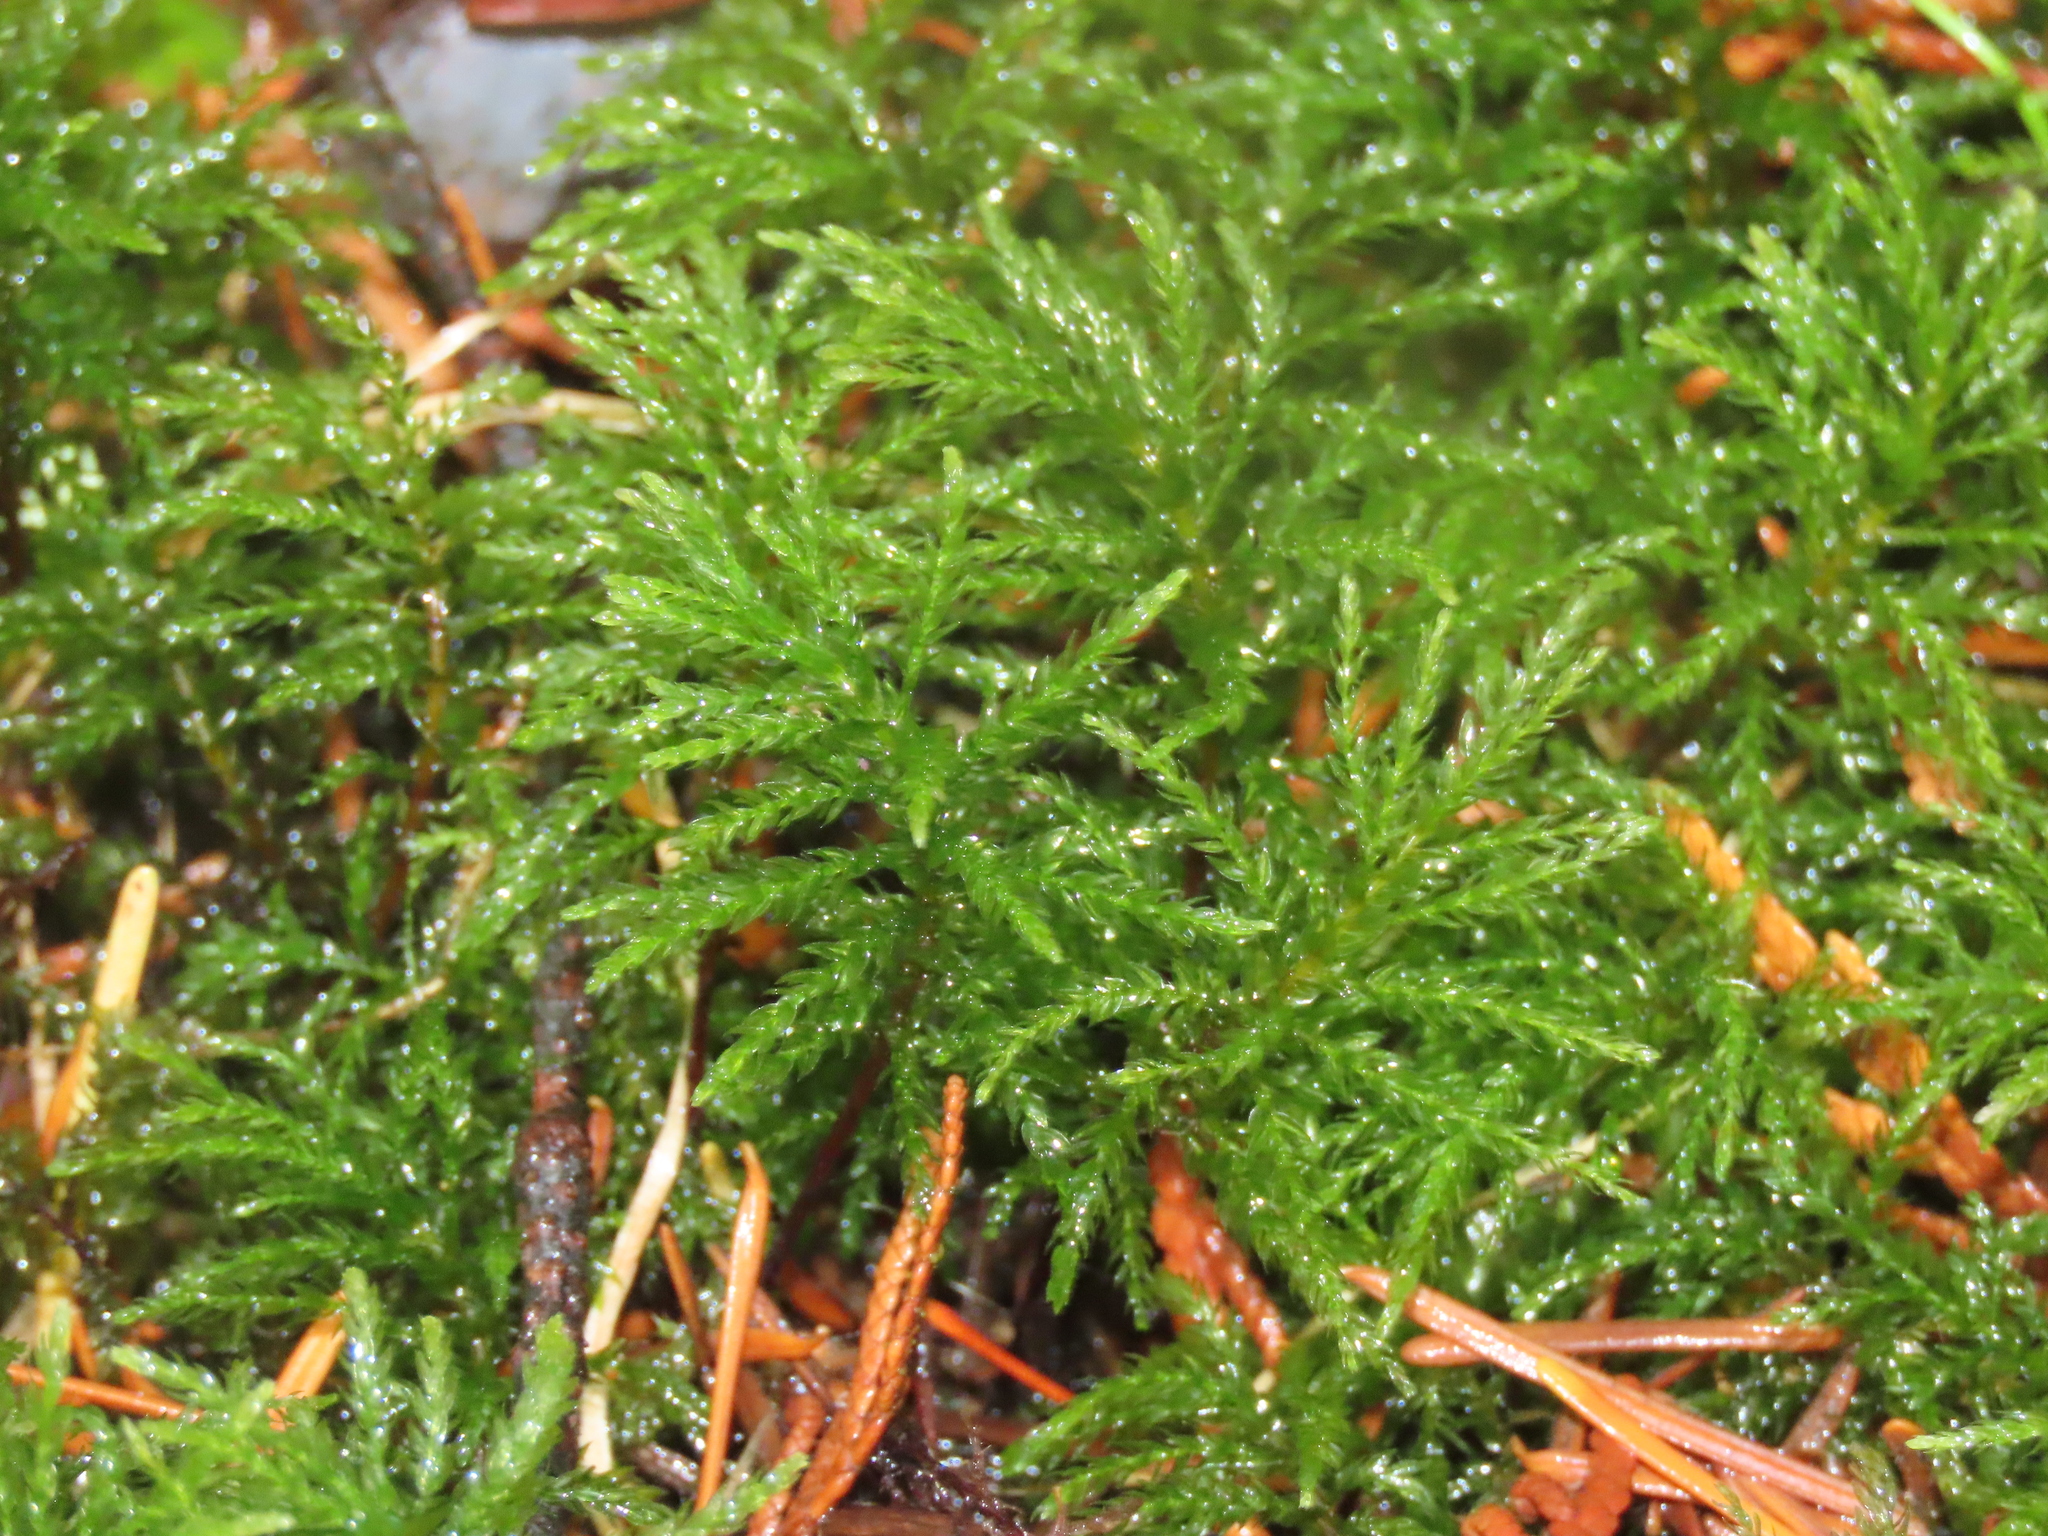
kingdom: Plantae
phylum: Bryophyta
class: Bryopsida
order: Bryales
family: Mniaceae
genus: Leucolepis
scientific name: Leucolepis acanthoneura
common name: Leucolepis umbrella moss
